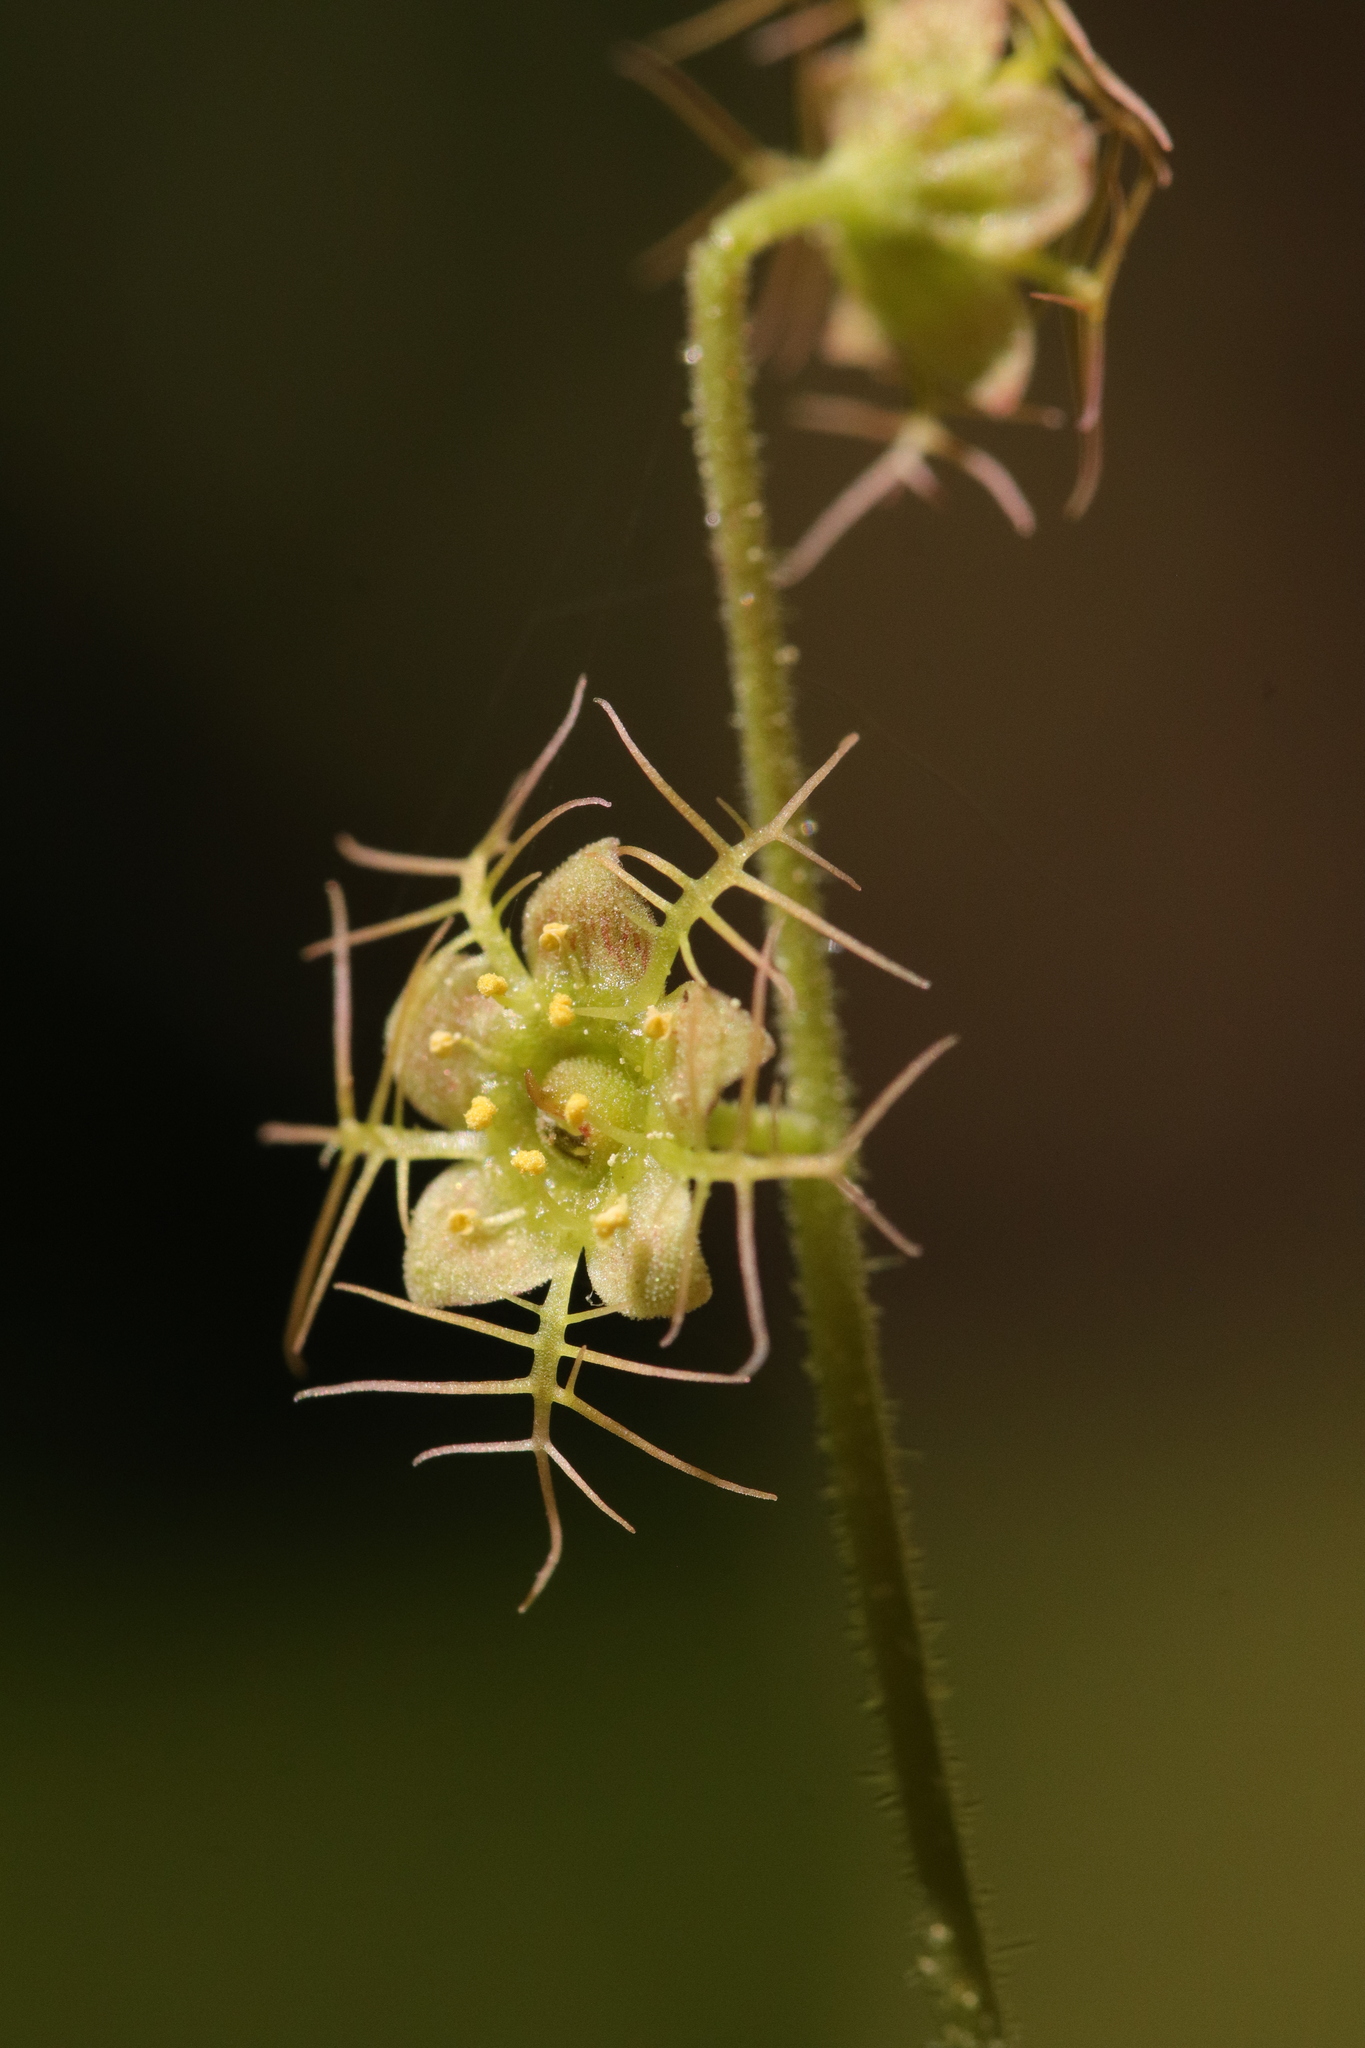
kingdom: Plantae
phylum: Tracheophyta
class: Magnoliopsida
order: Saxifragales
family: Saxifragaceae
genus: Mitella
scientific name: Mitella nuda
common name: Bare-stemmed bishop's-cap
